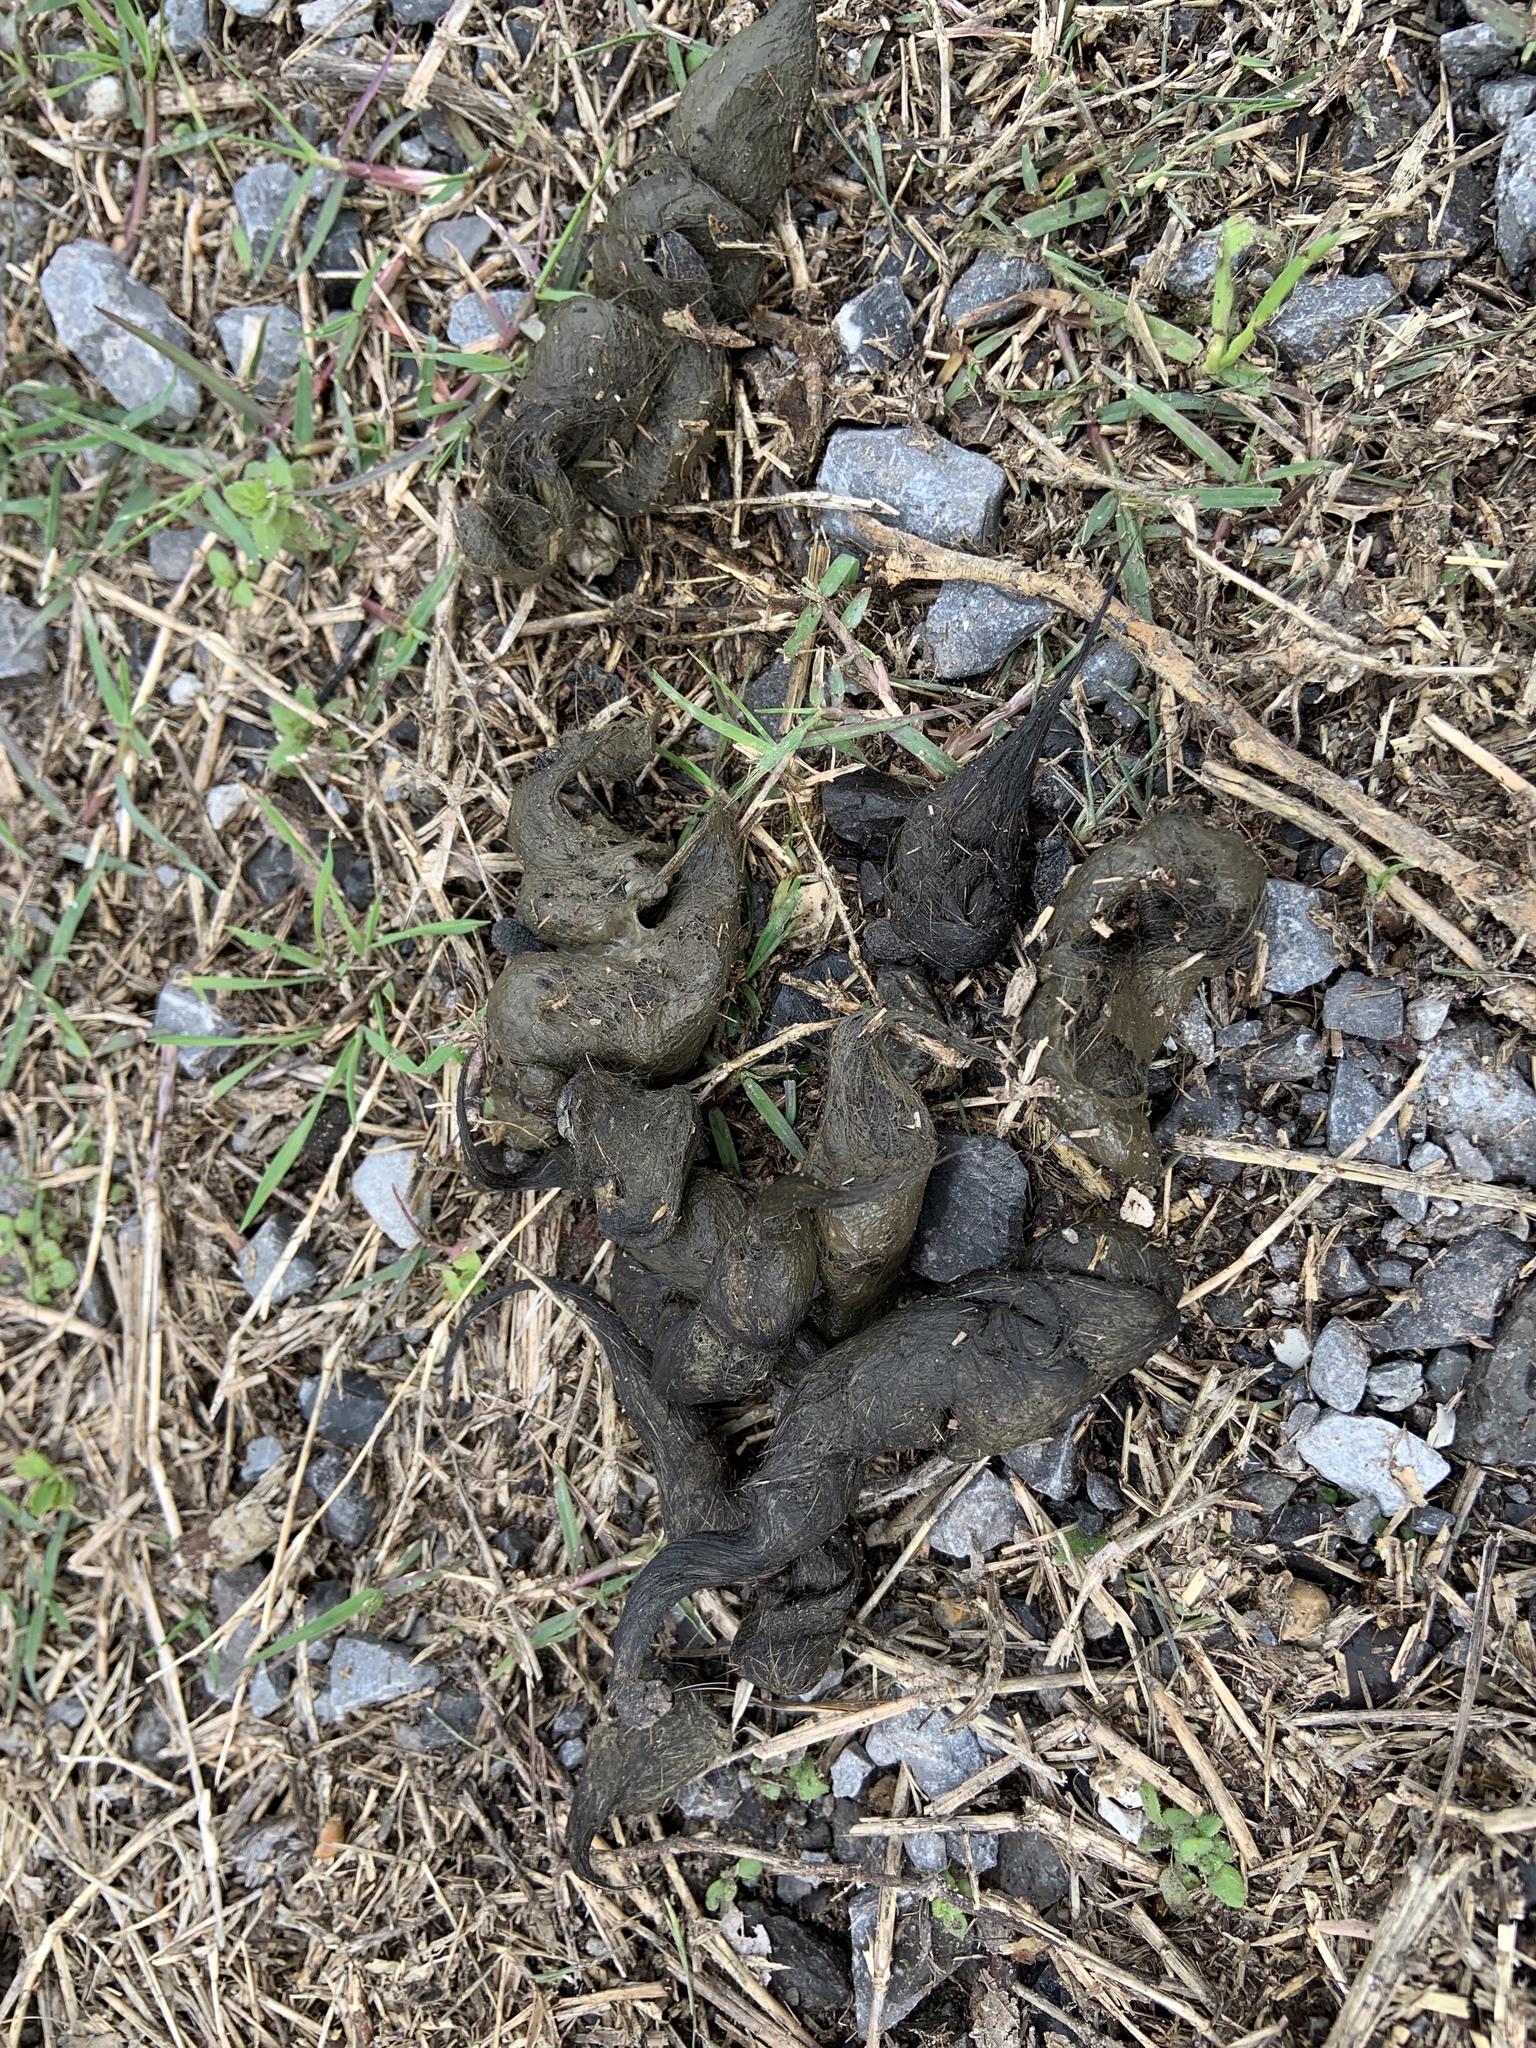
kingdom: Animalia
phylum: Chordata
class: Mammalia
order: Carnivora
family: Canidae
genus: Canis
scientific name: Canis latrans
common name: Coyote
